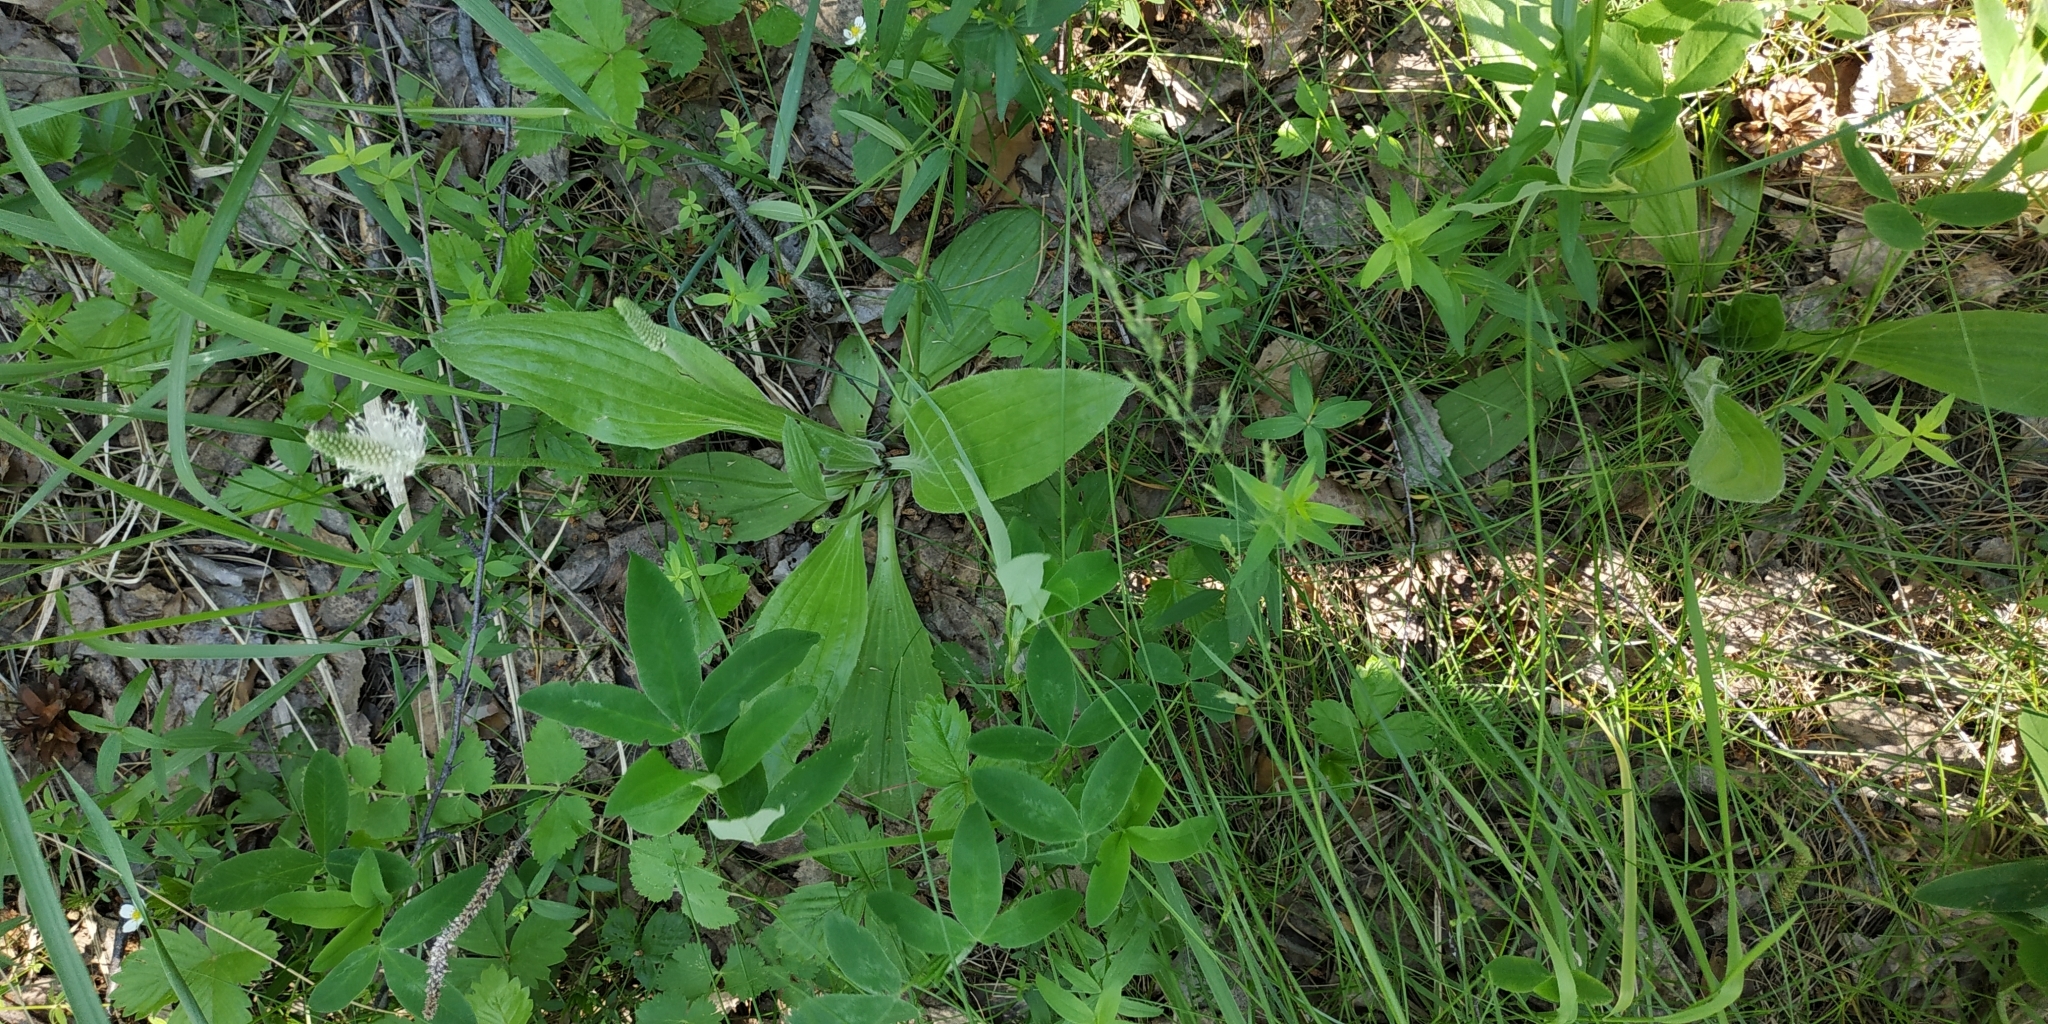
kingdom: Plantae
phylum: Tracheophyta
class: Magnoliopsida
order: Lamiales
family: Plantaginaceae
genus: Plantago
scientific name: Plantago urvillei
